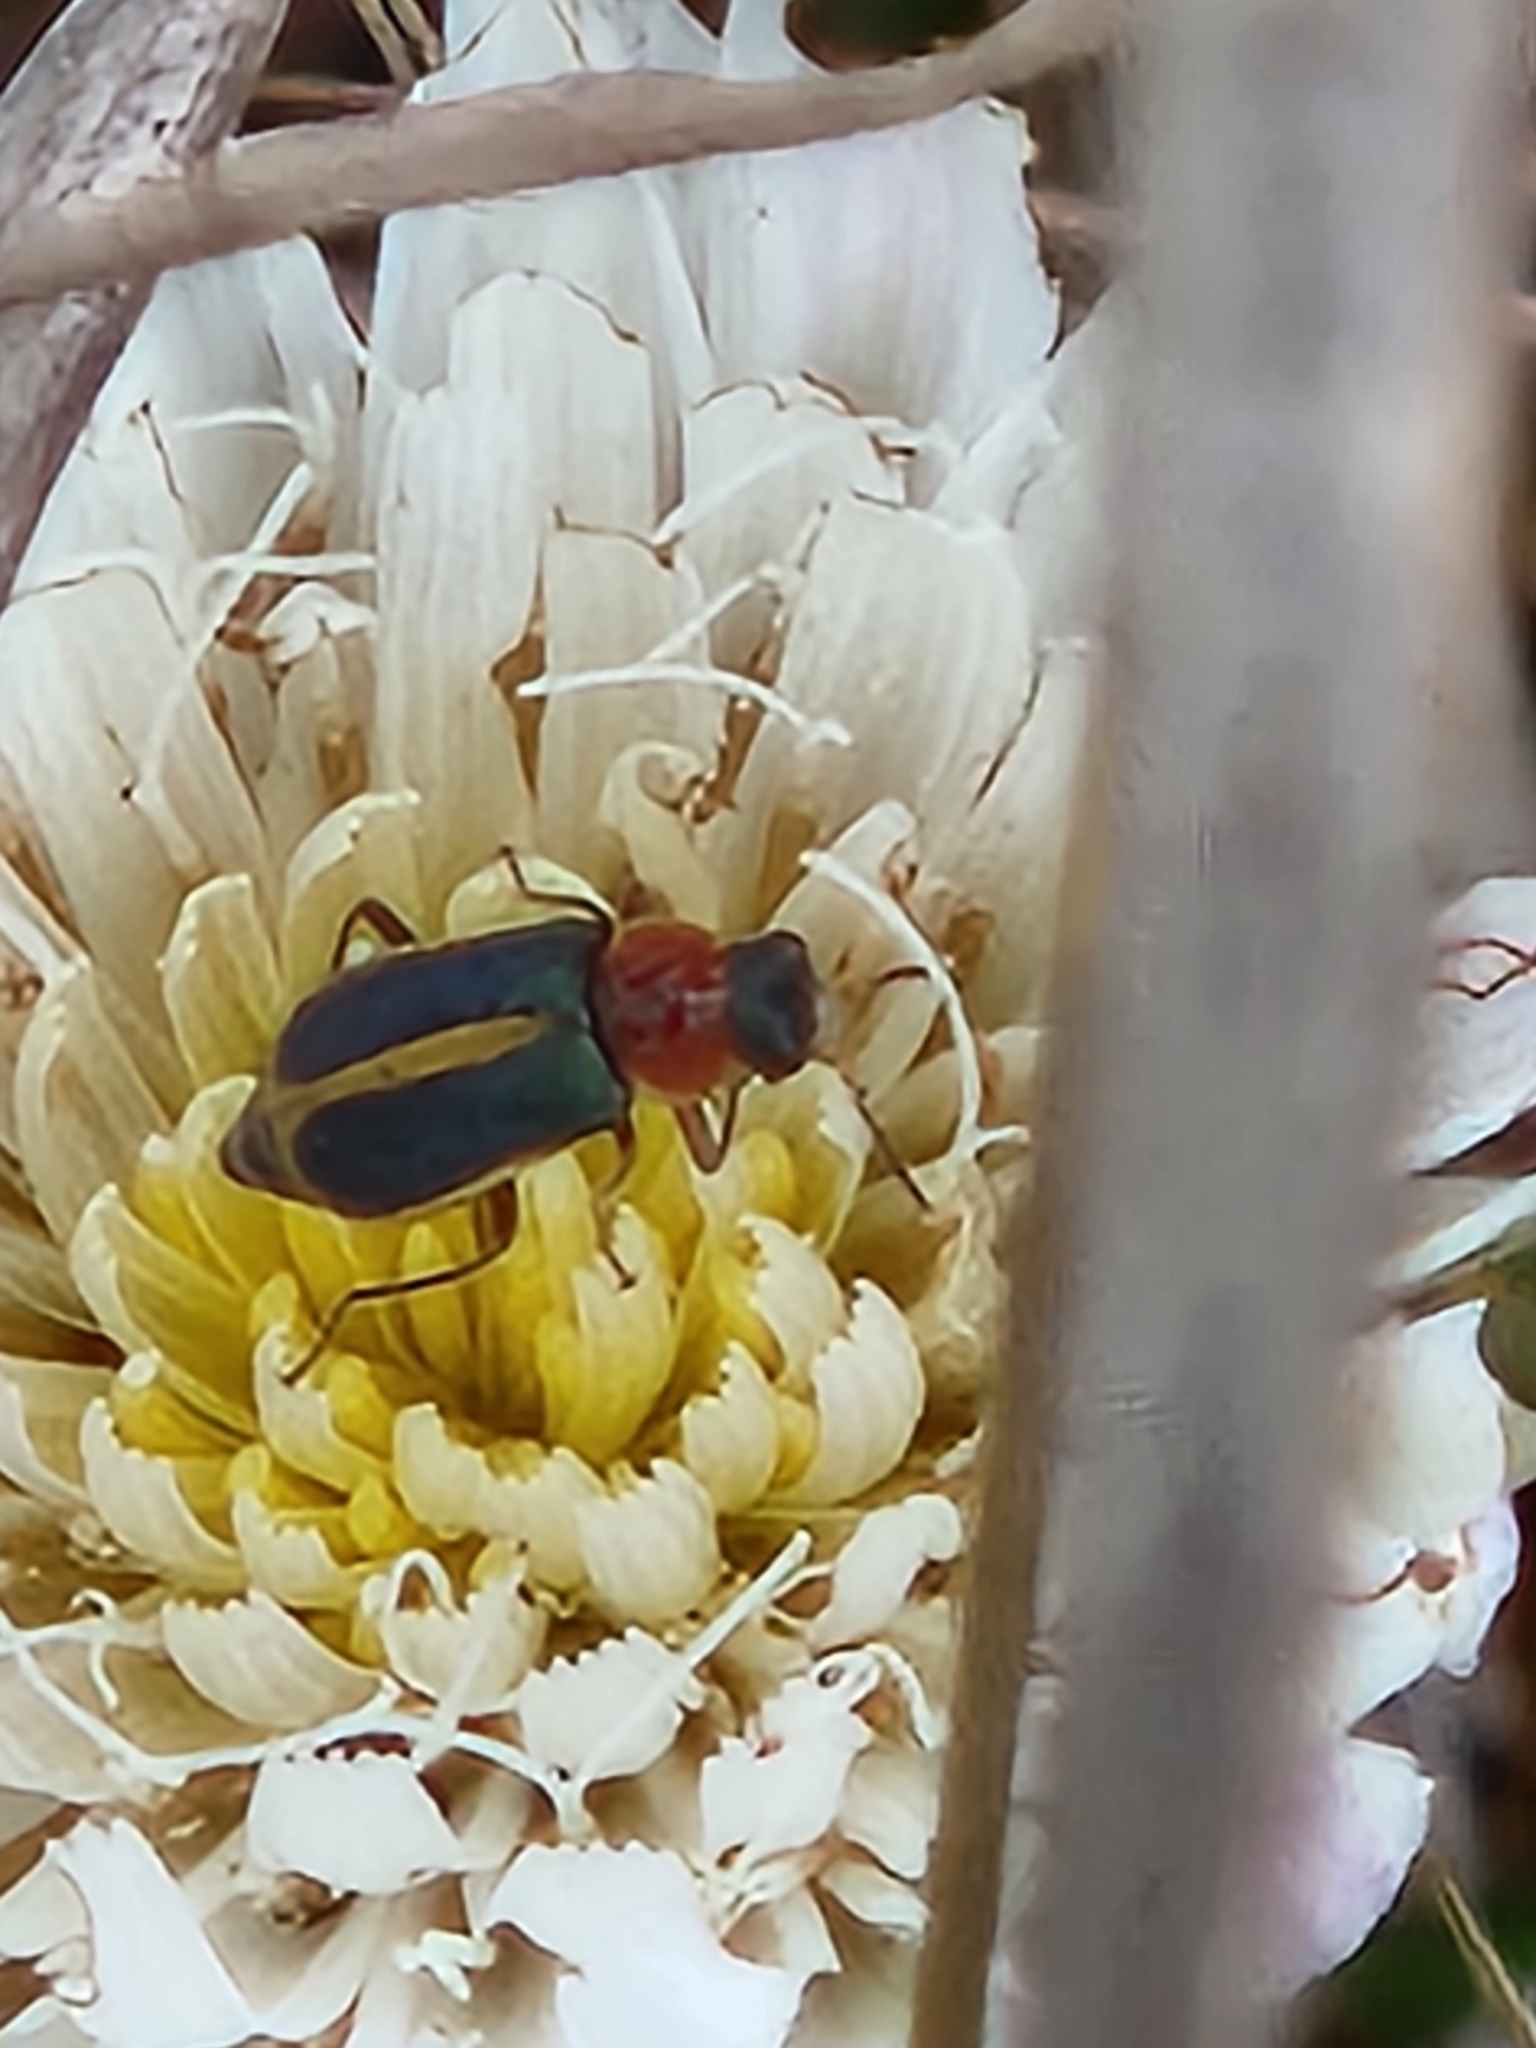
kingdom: Animalia
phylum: Arthropoda
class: Insecta
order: Coleoptera
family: Melyridae
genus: Collops
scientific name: Collops
